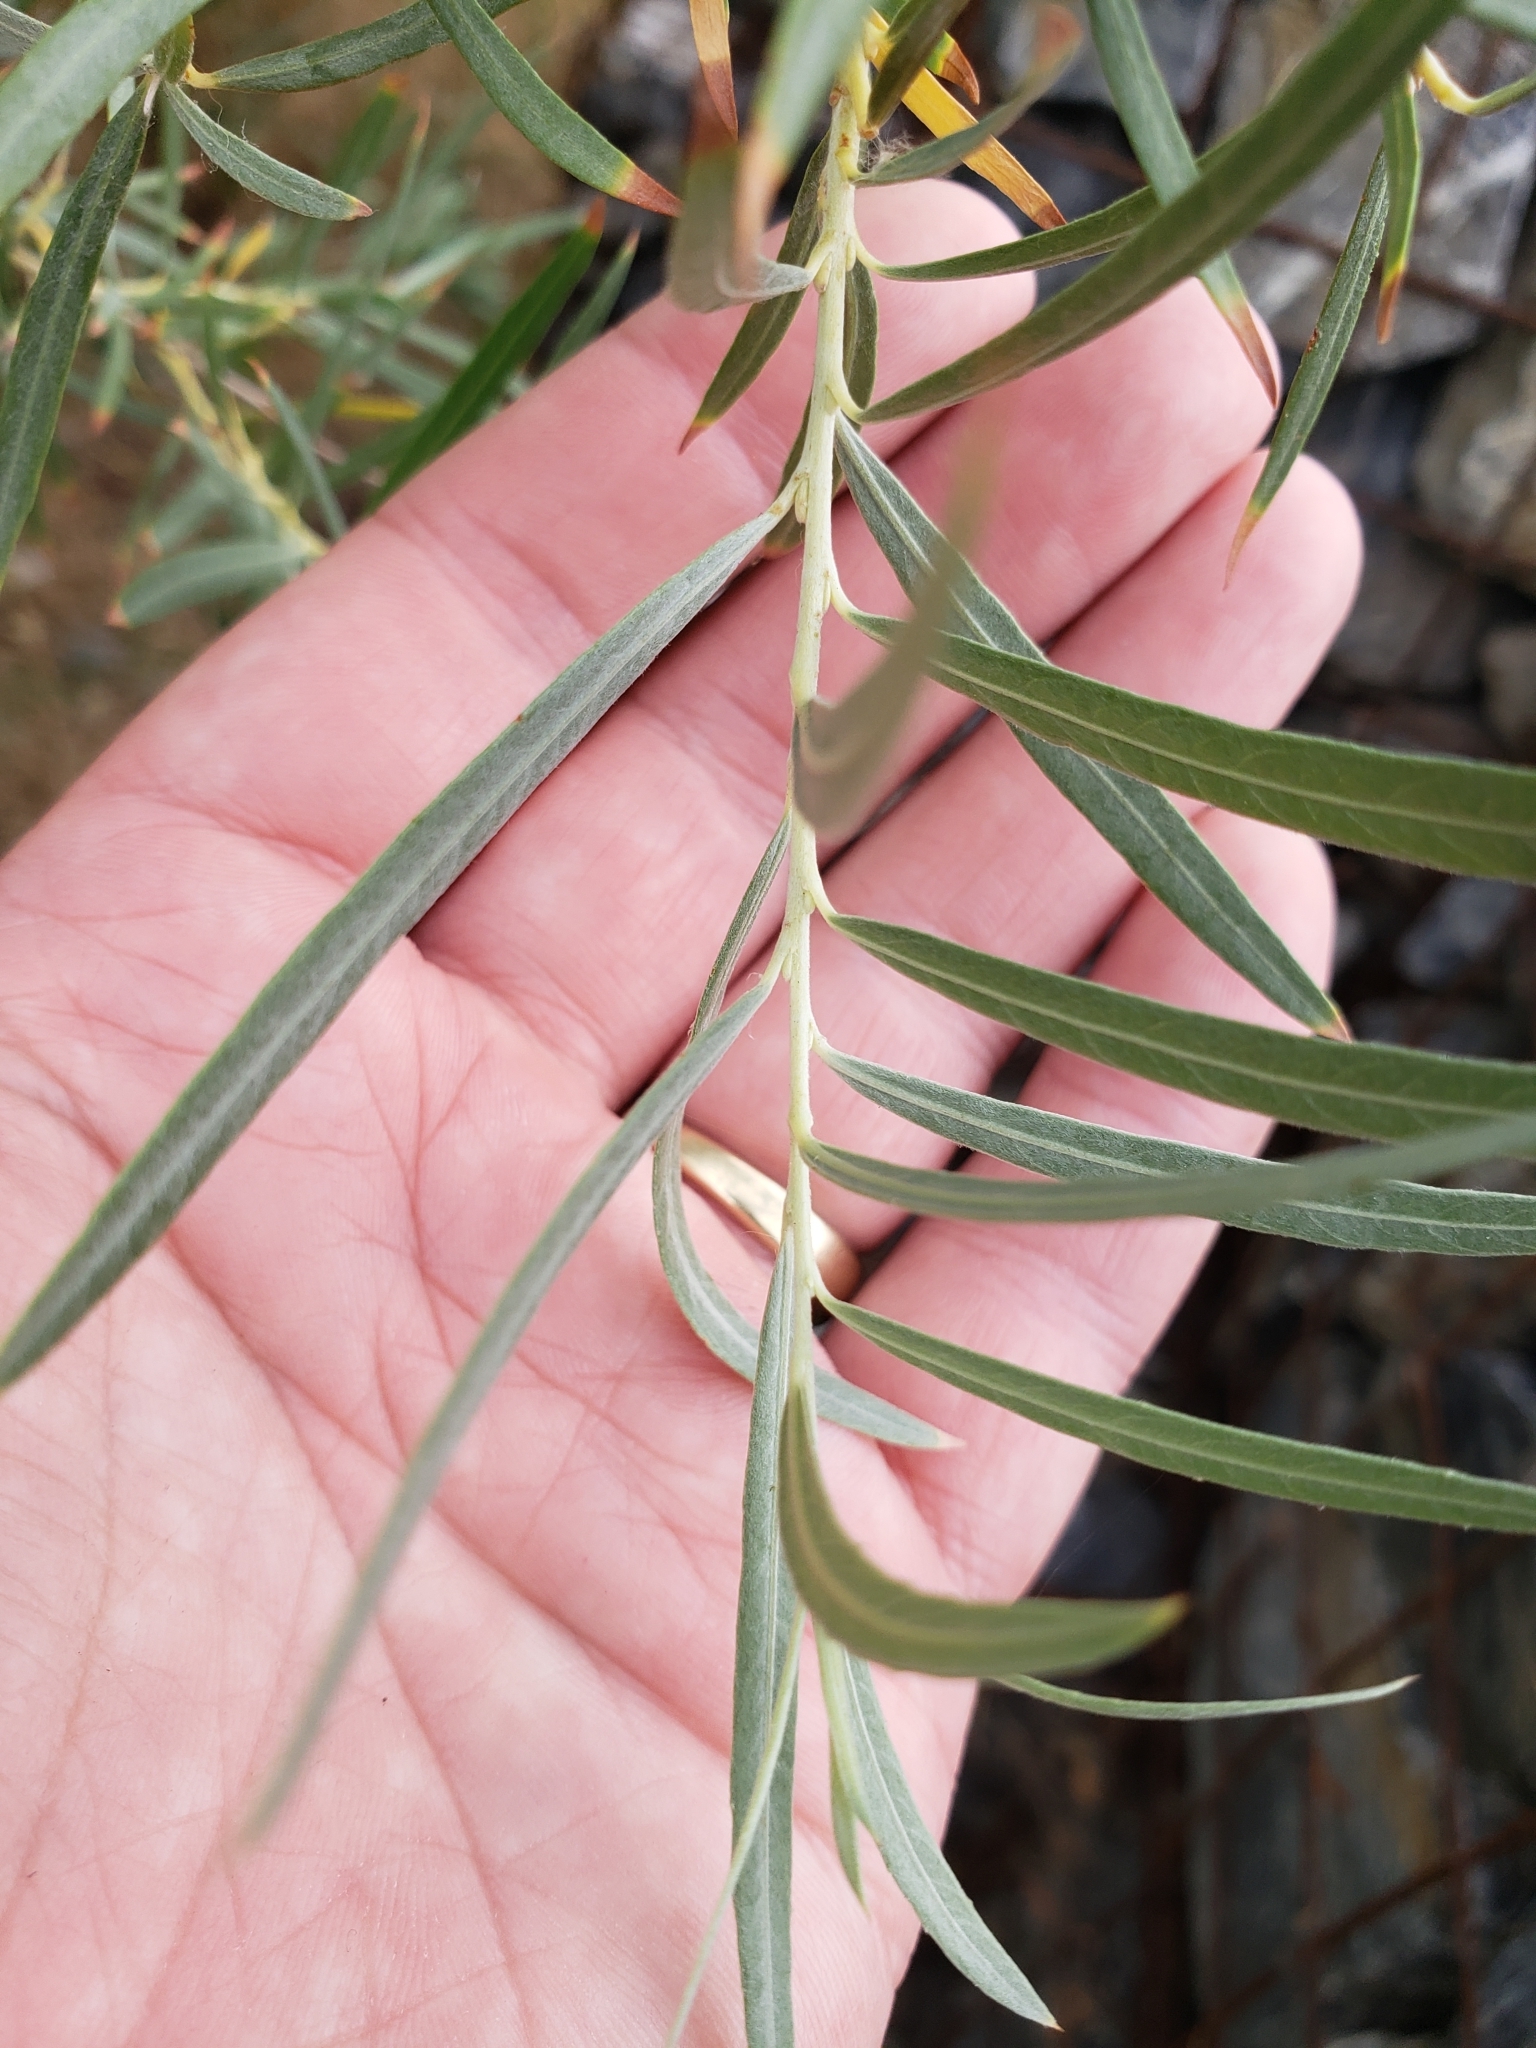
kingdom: Plantae
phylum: Tracheophyta
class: Magnoliopsida
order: Malpighiales
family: Salicaceae
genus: Salix
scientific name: Salix exigua
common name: Coyote willow
